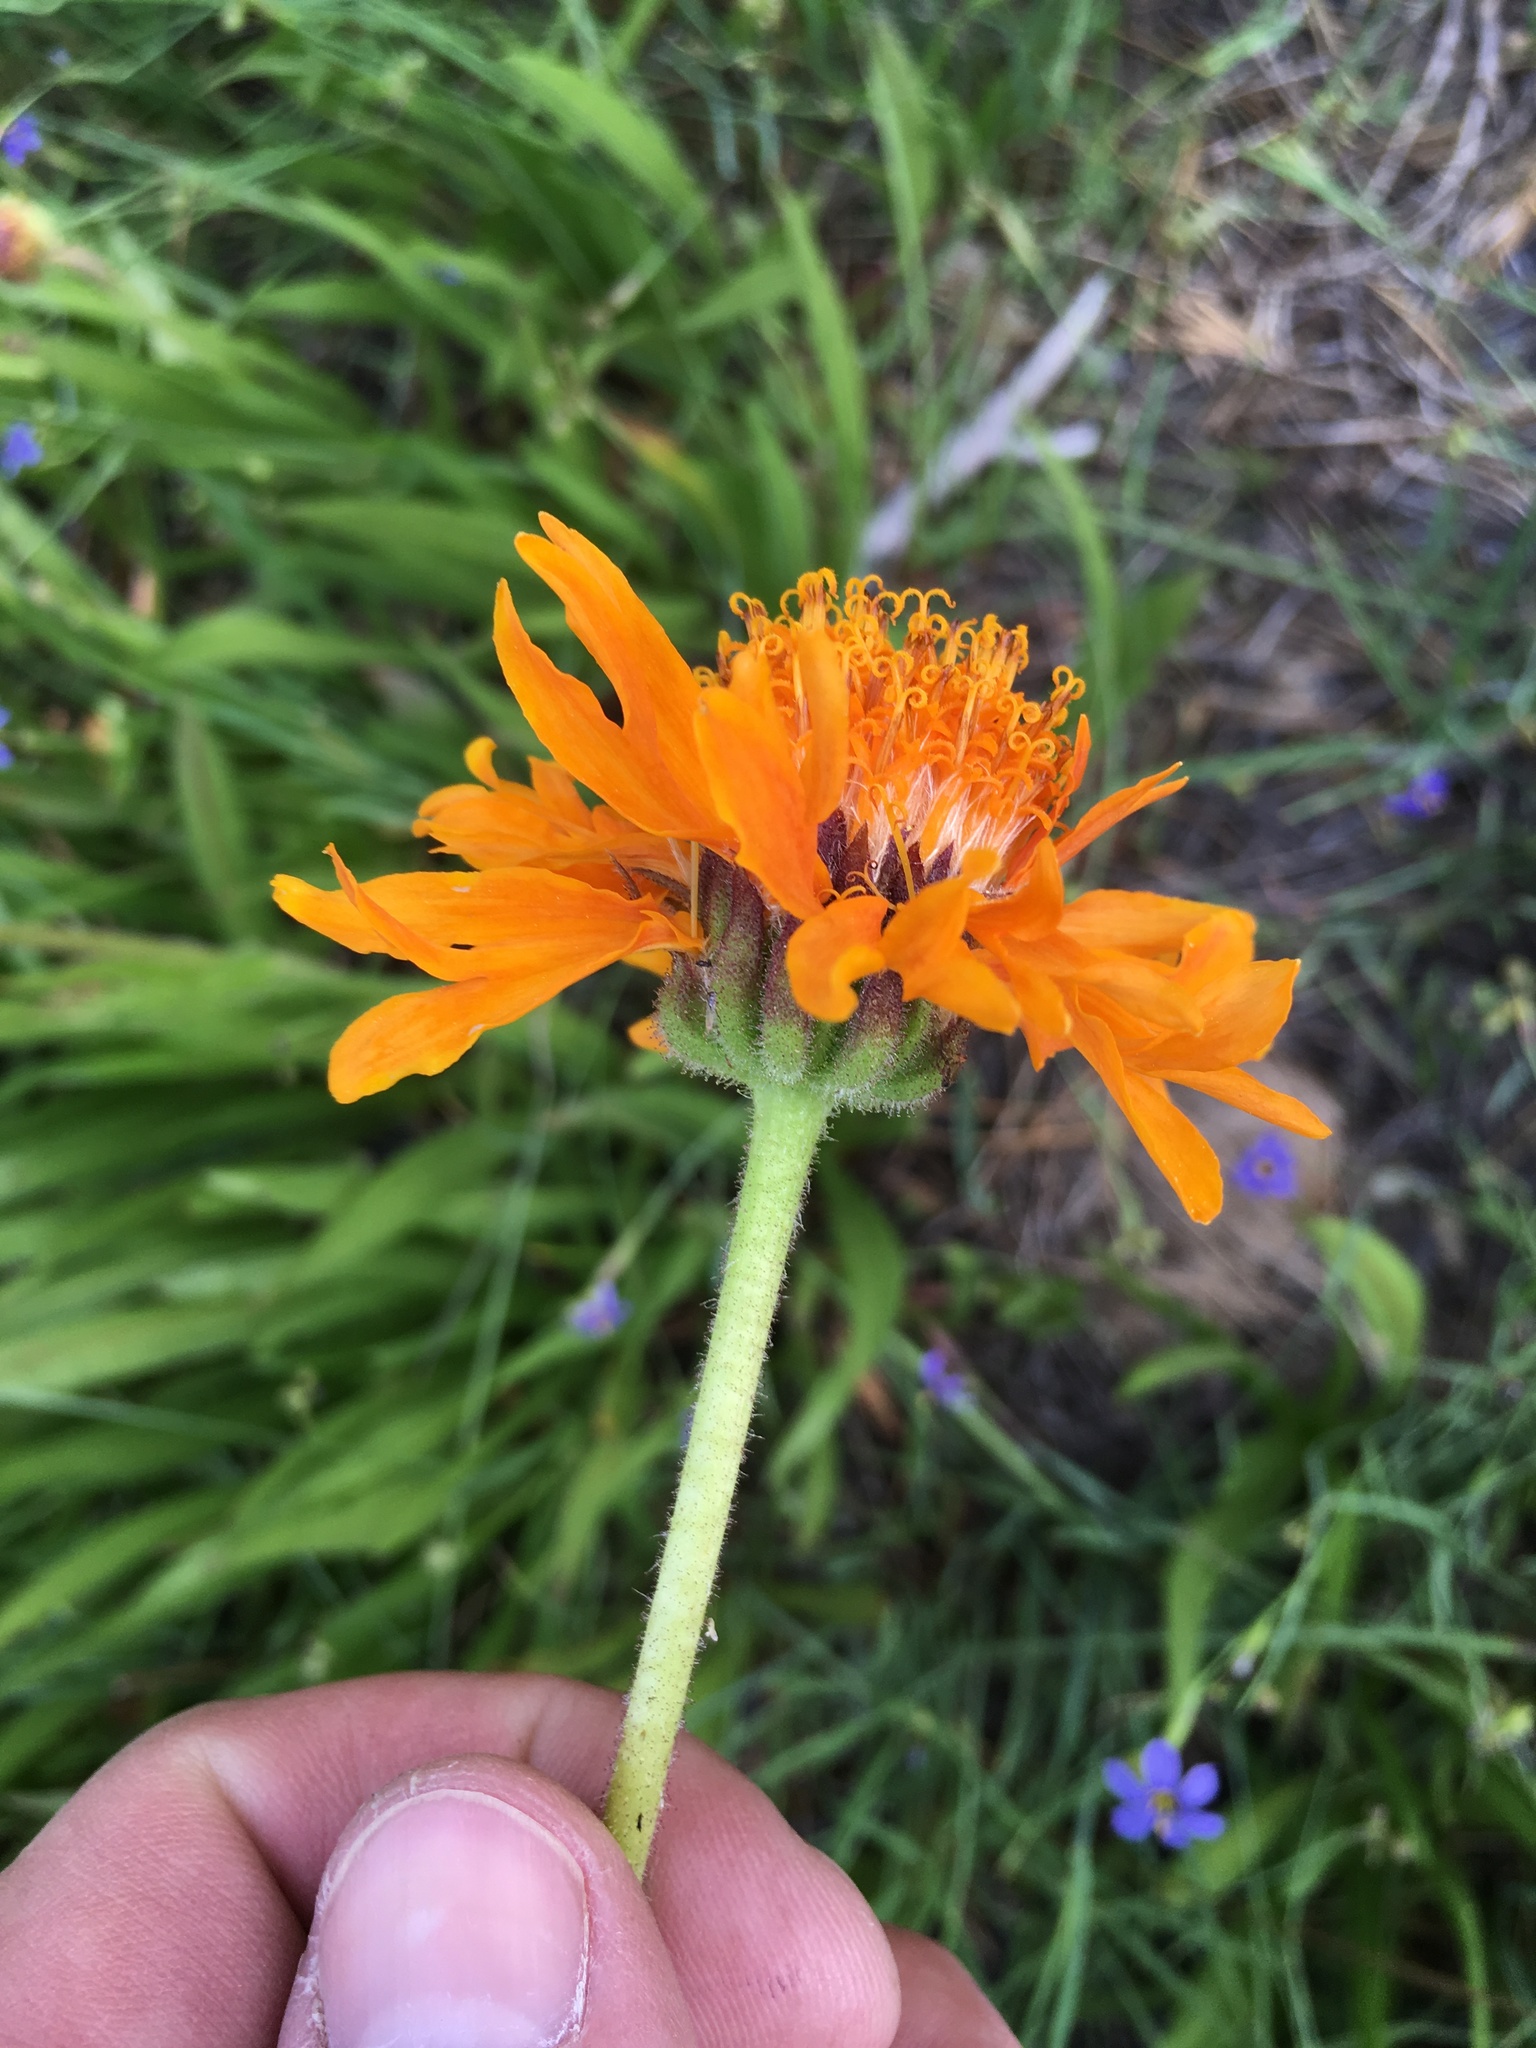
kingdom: Plantae
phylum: Tracheophyta
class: Magnoliopsida
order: Asterales
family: Asteraceae
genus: Raillardella
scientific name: Raillardella pringlei
